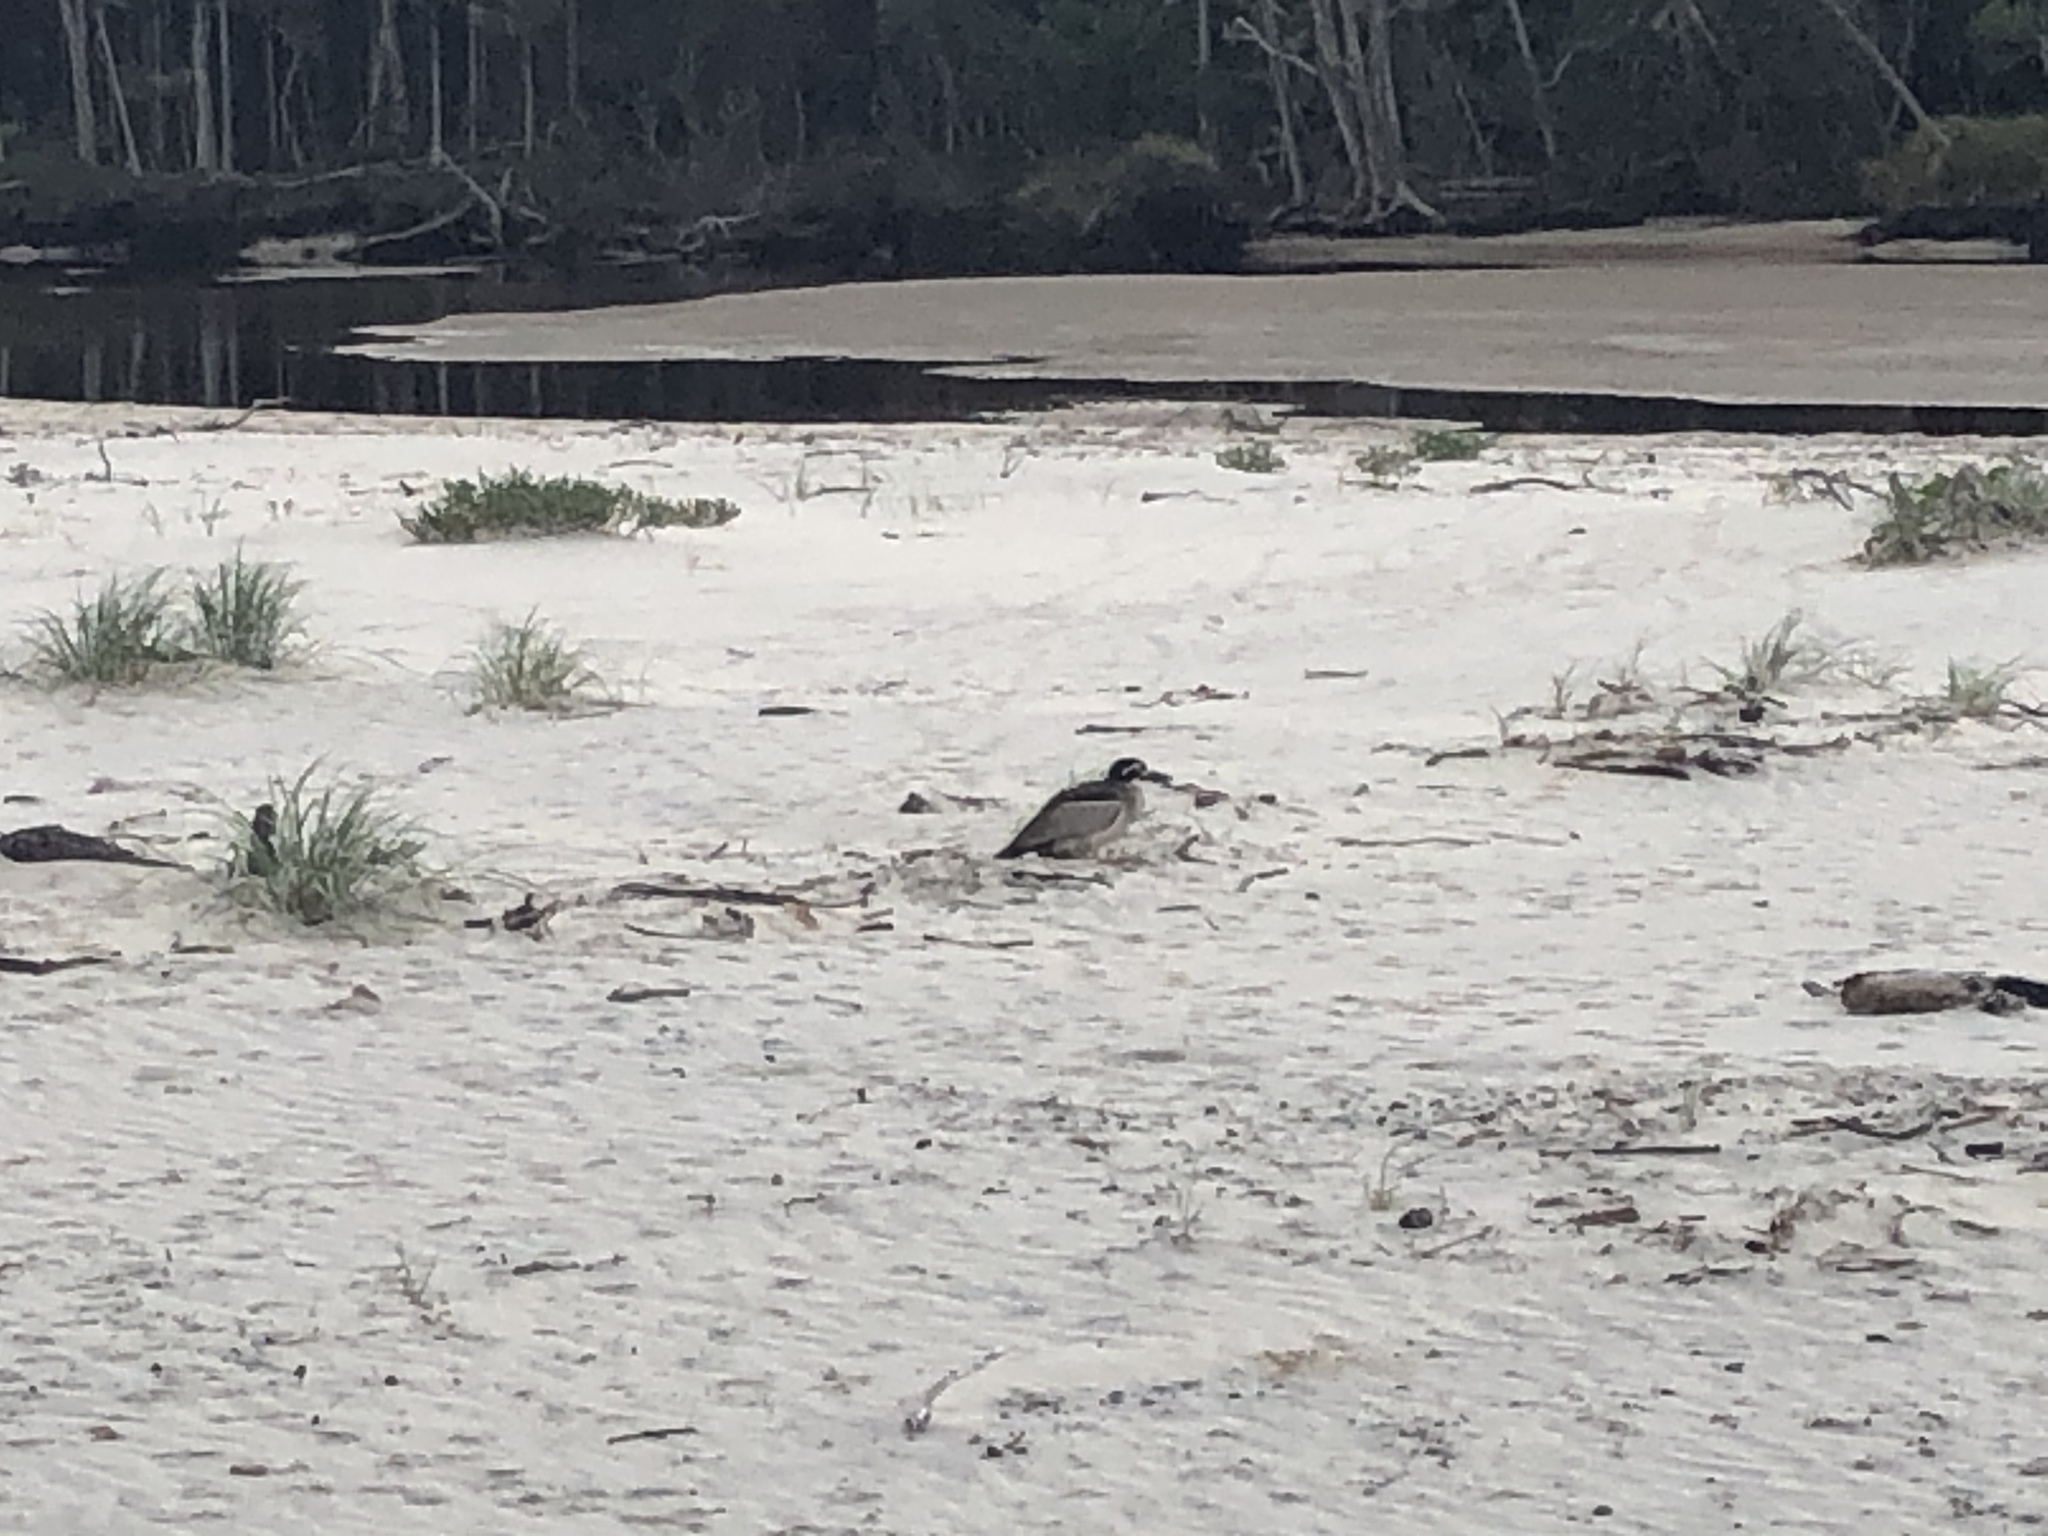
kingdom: Animalia
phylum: Chordata
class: Aves
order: Charadriiformes
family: Burhinidae
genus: Esacus
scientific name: Esacus magnirostris
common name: Beach stone-curlew
